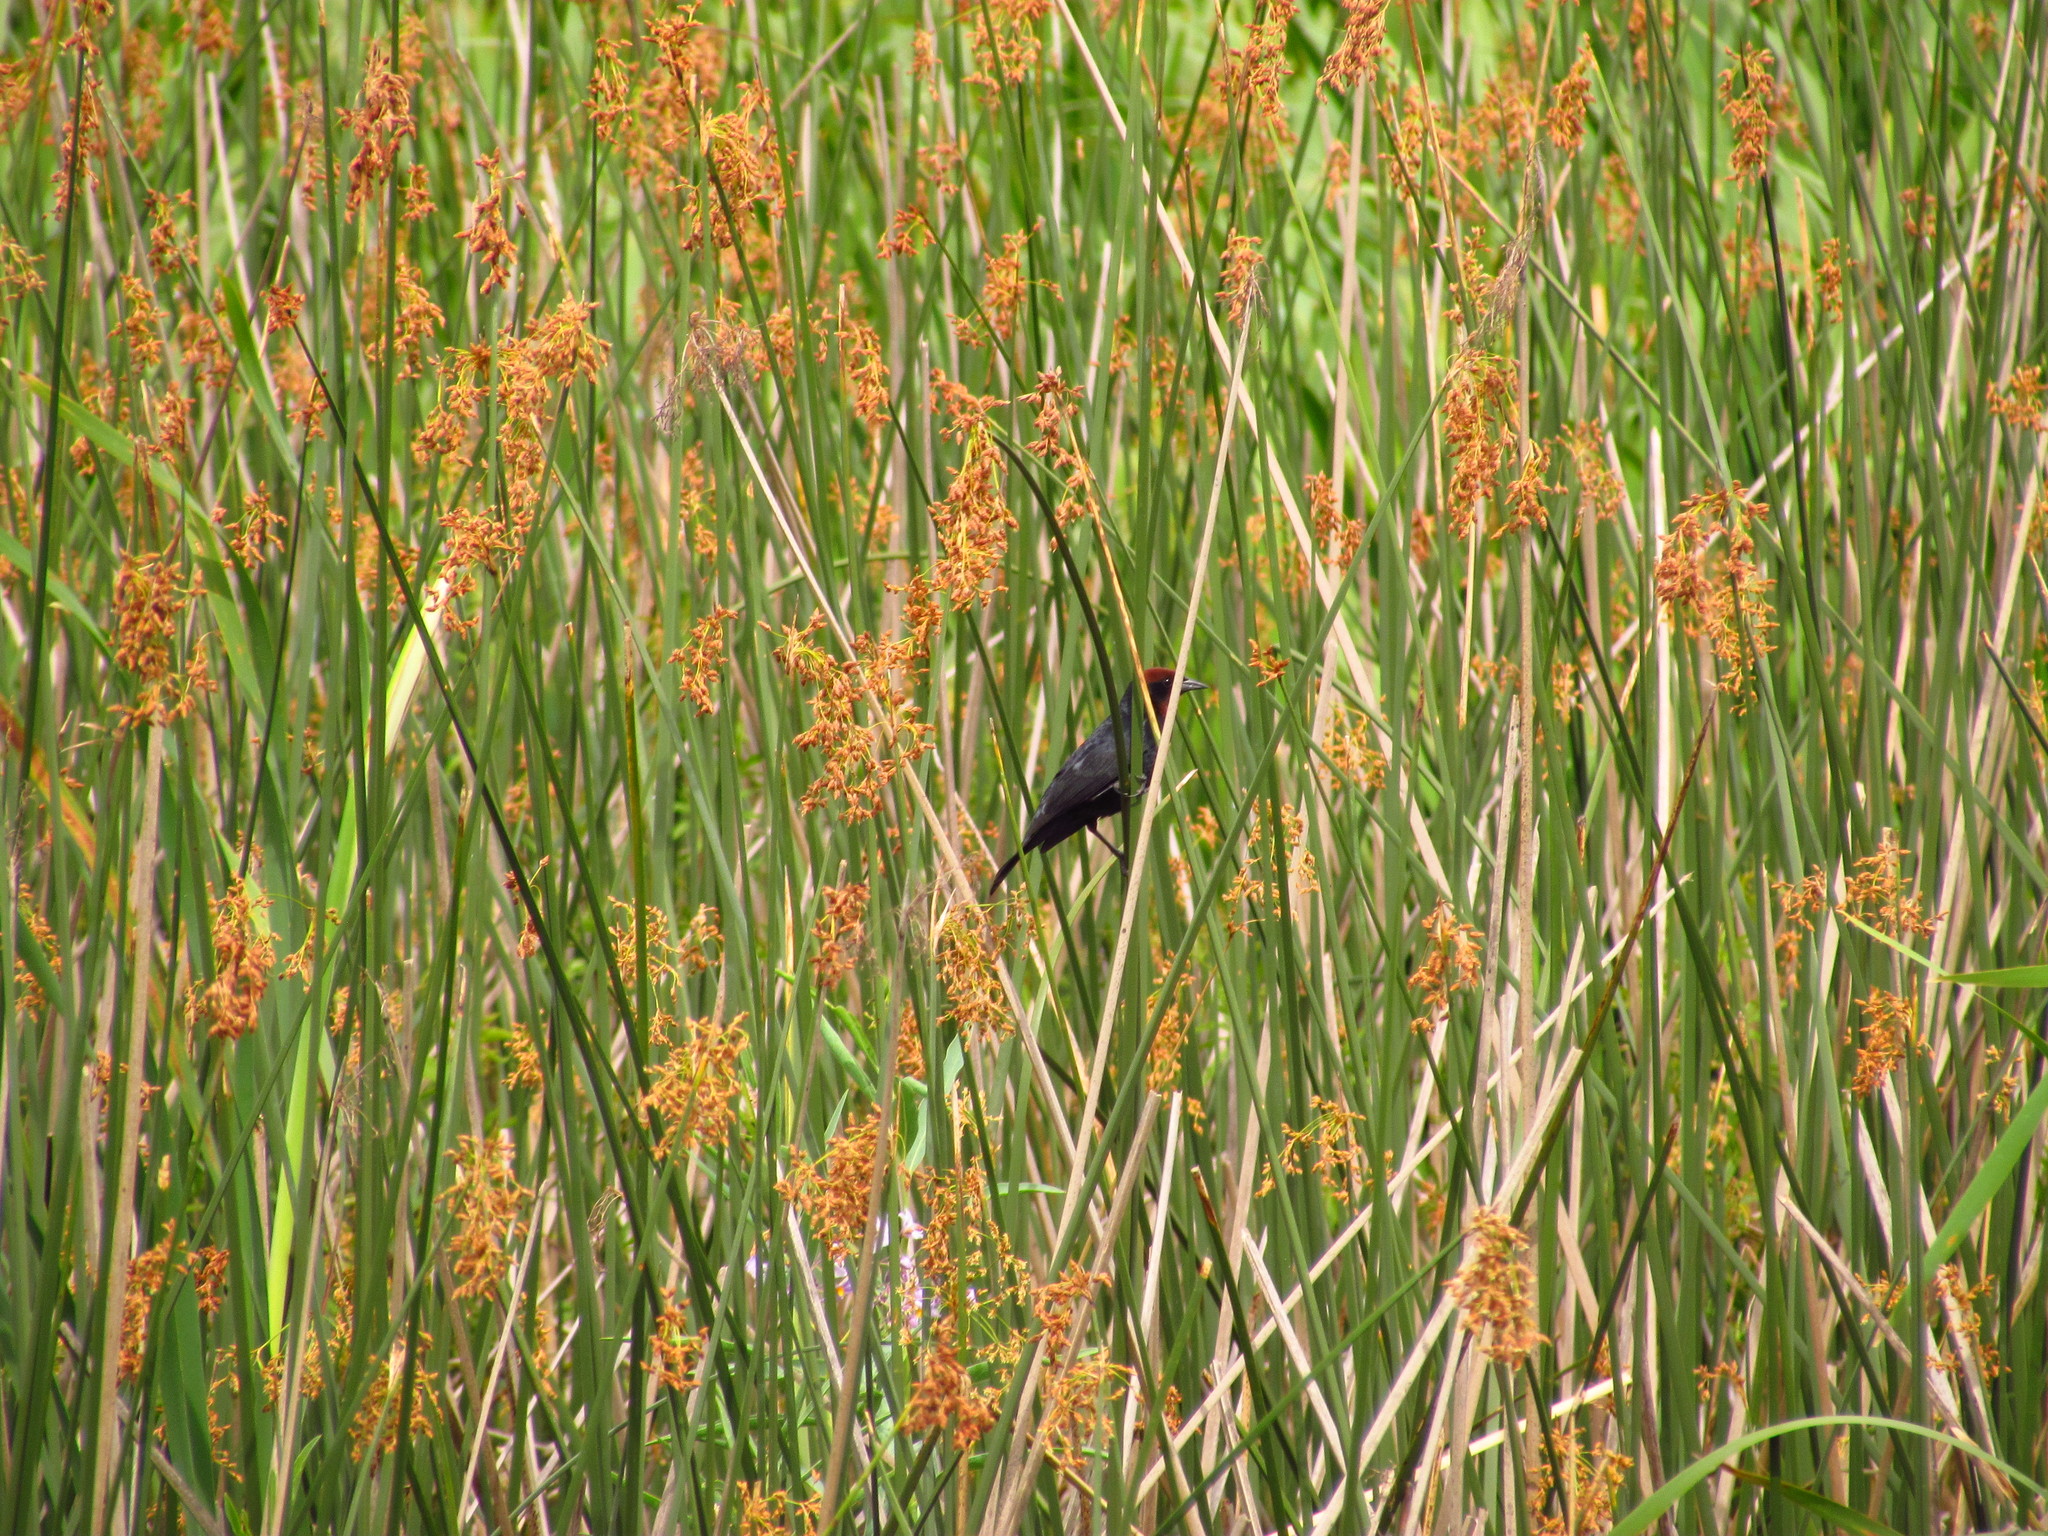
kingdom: Animalia
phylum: Chordata
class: Aves
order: Passeriformes
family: Icteridae
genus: Chrysomus
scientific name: Chrysomus ruficapillus
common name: Chestnut-capped blackbird
